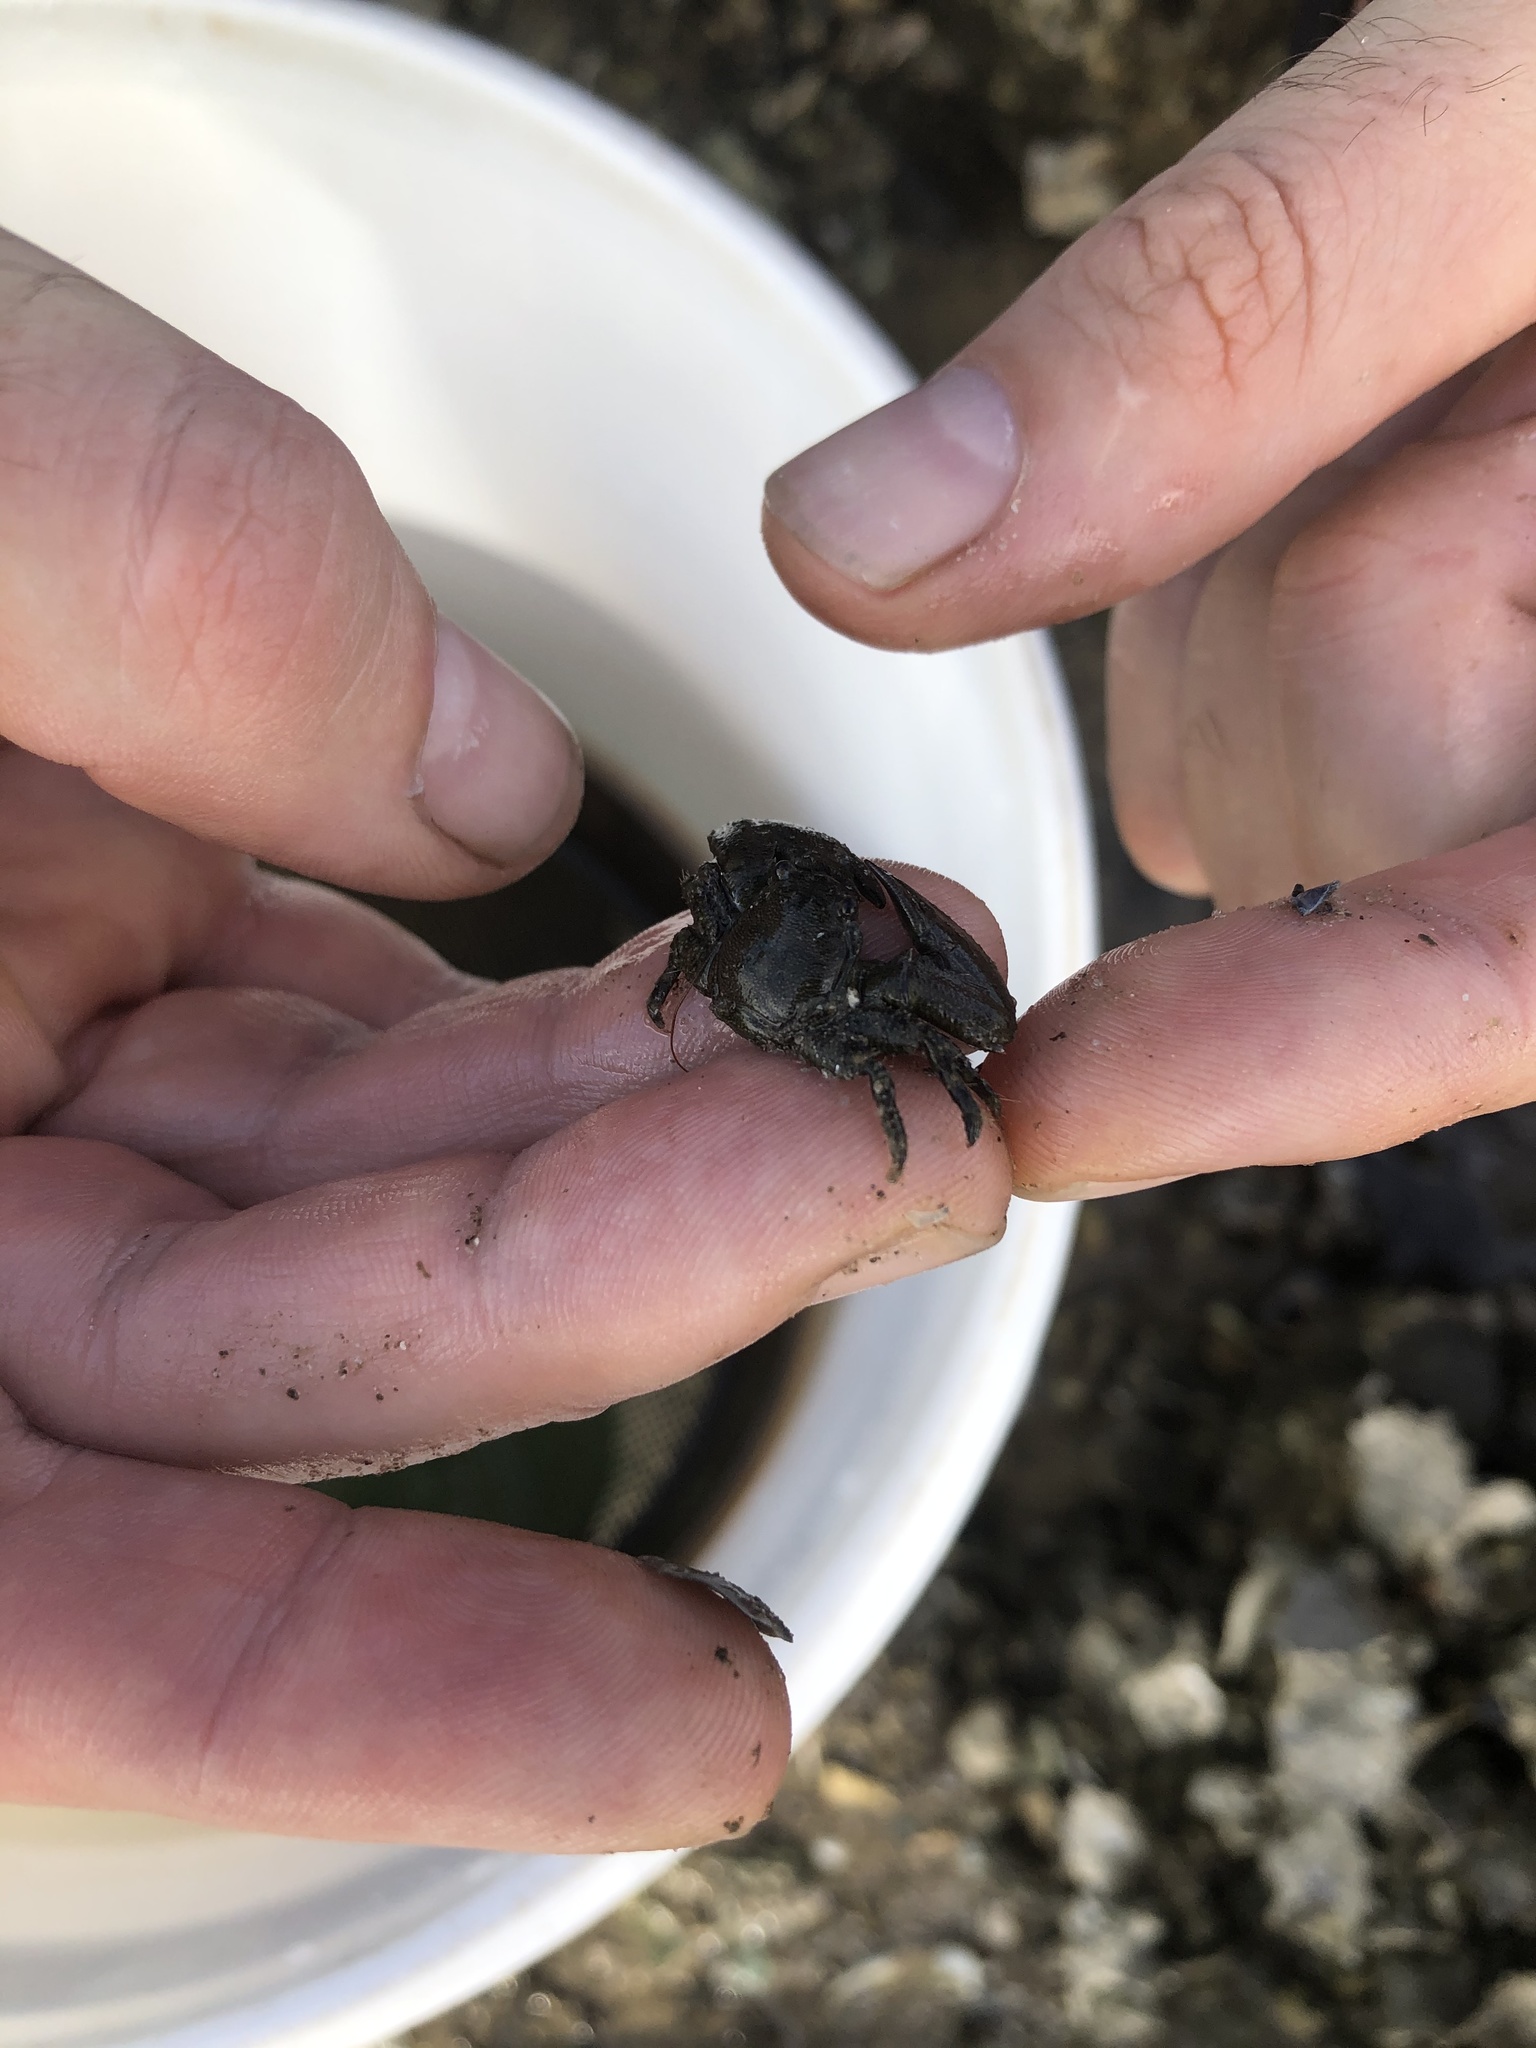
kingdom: Animalia
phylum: Arthropoda
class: Malacostraca
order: Decapoda
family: Porcellanidae
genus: Petrolisthes
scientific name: Petrolisthes armatus
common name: Green porcelain crab
